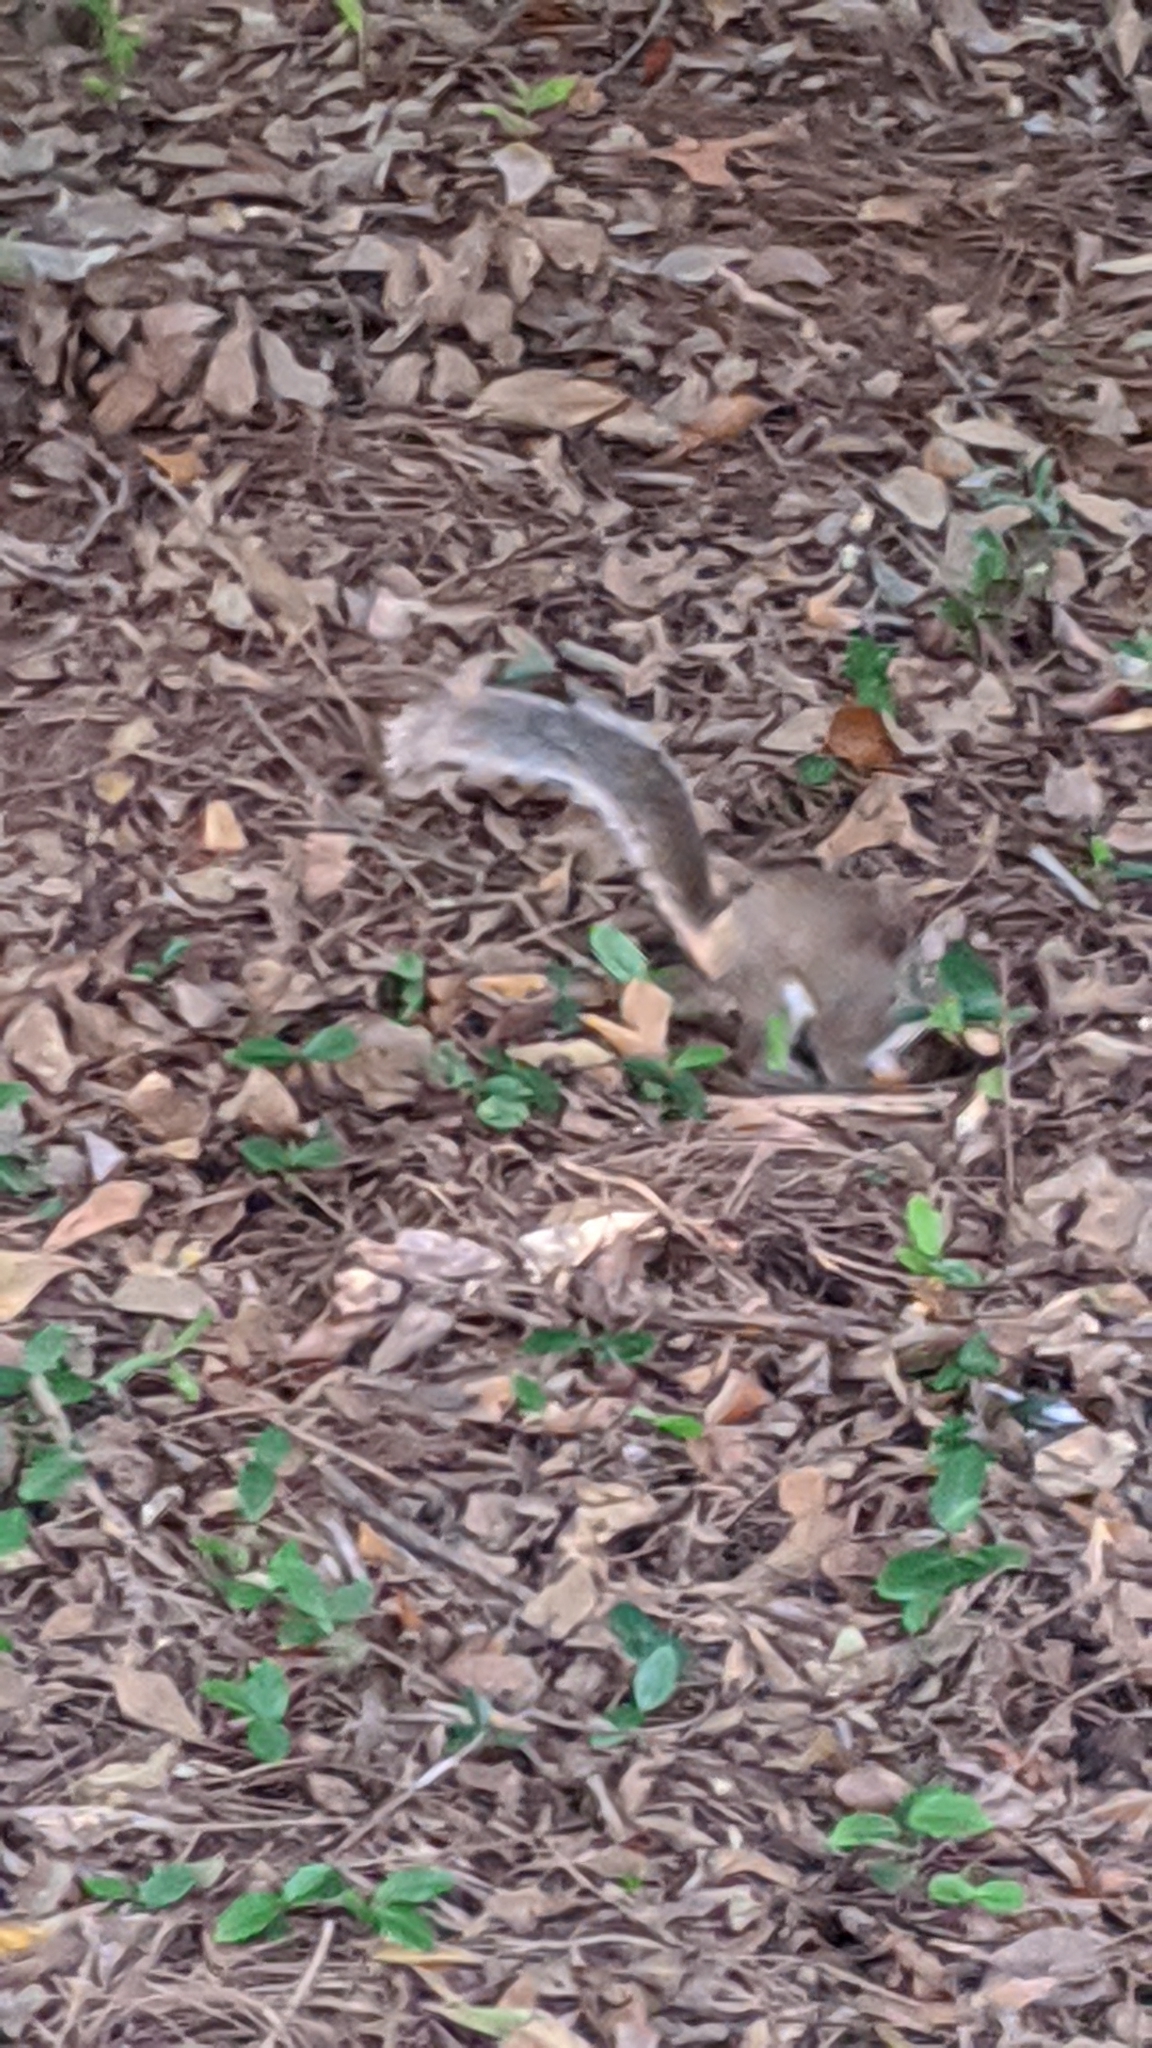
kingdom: Animalia
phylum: Chordata
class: Mammalia
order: Rodentia
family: Sciuridae
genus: Sciurus
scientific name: Sciurus carolinensis
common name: Eastern gray squirrel
